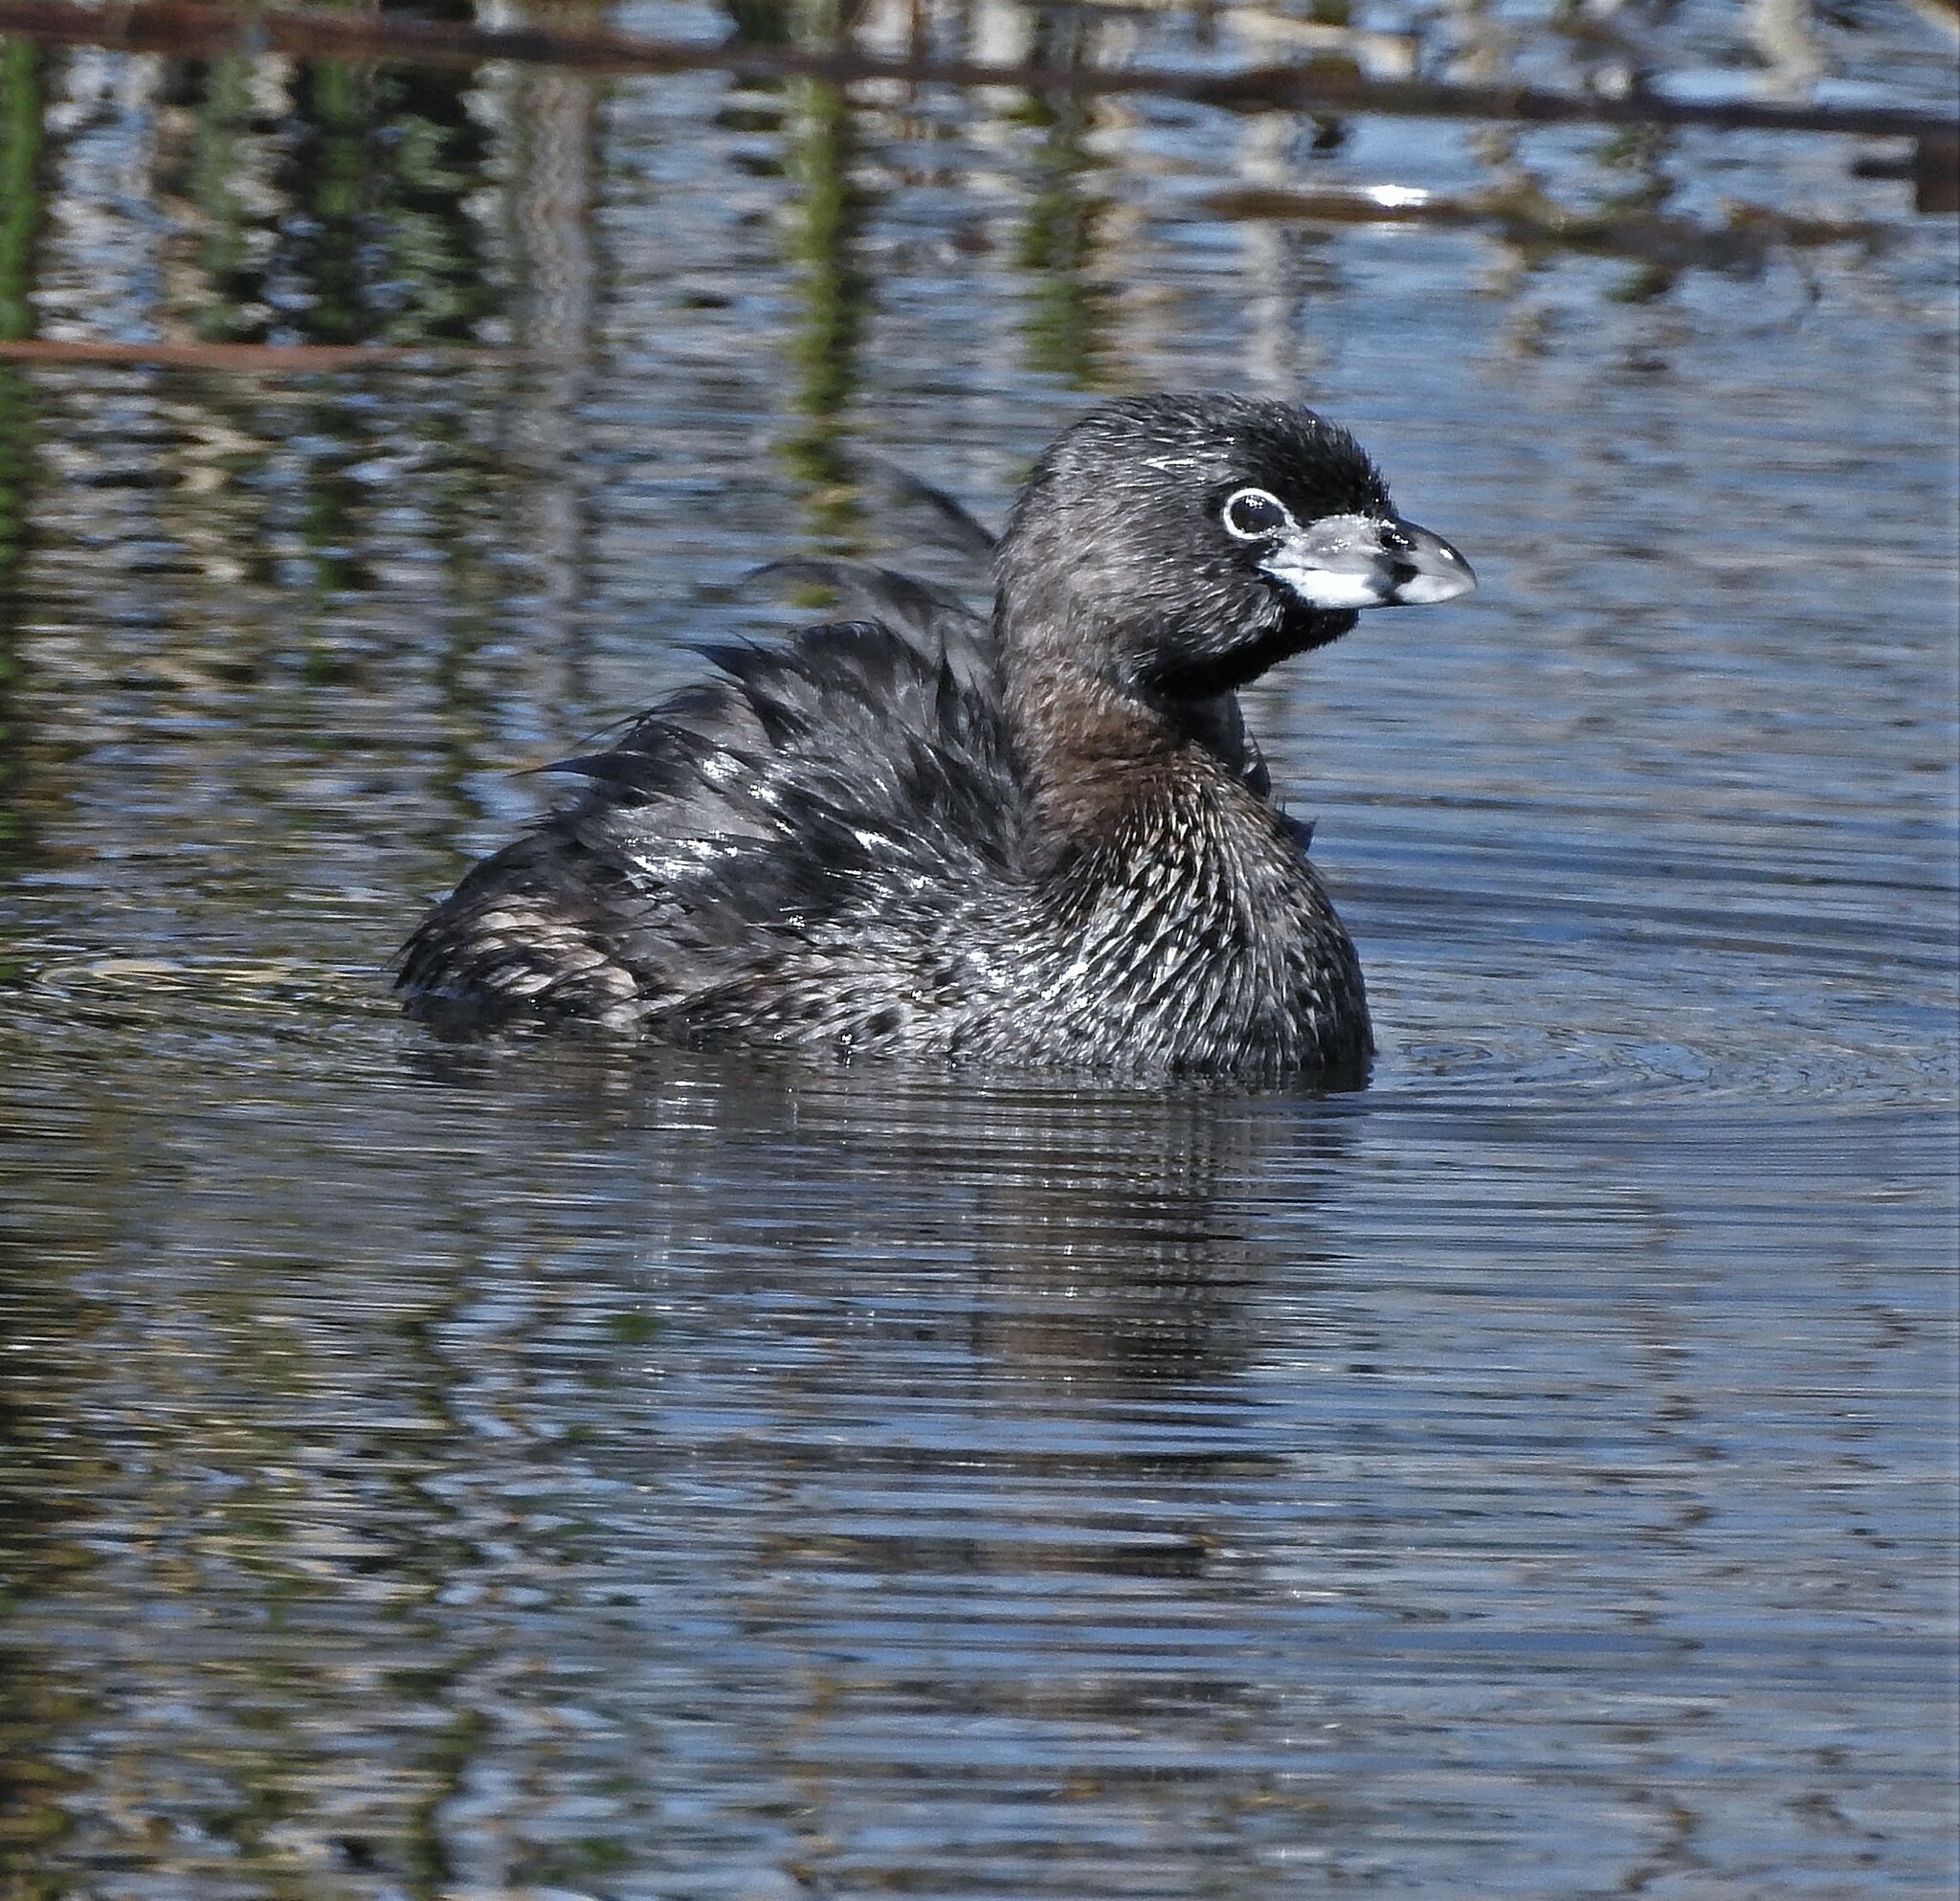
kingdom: Animalia
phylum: Chordata
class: Aves
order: Podicipediformes
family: Podicipedidae
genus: Podilymbus
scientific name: Podilymbus podiceps
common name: Pied-billed grebe
